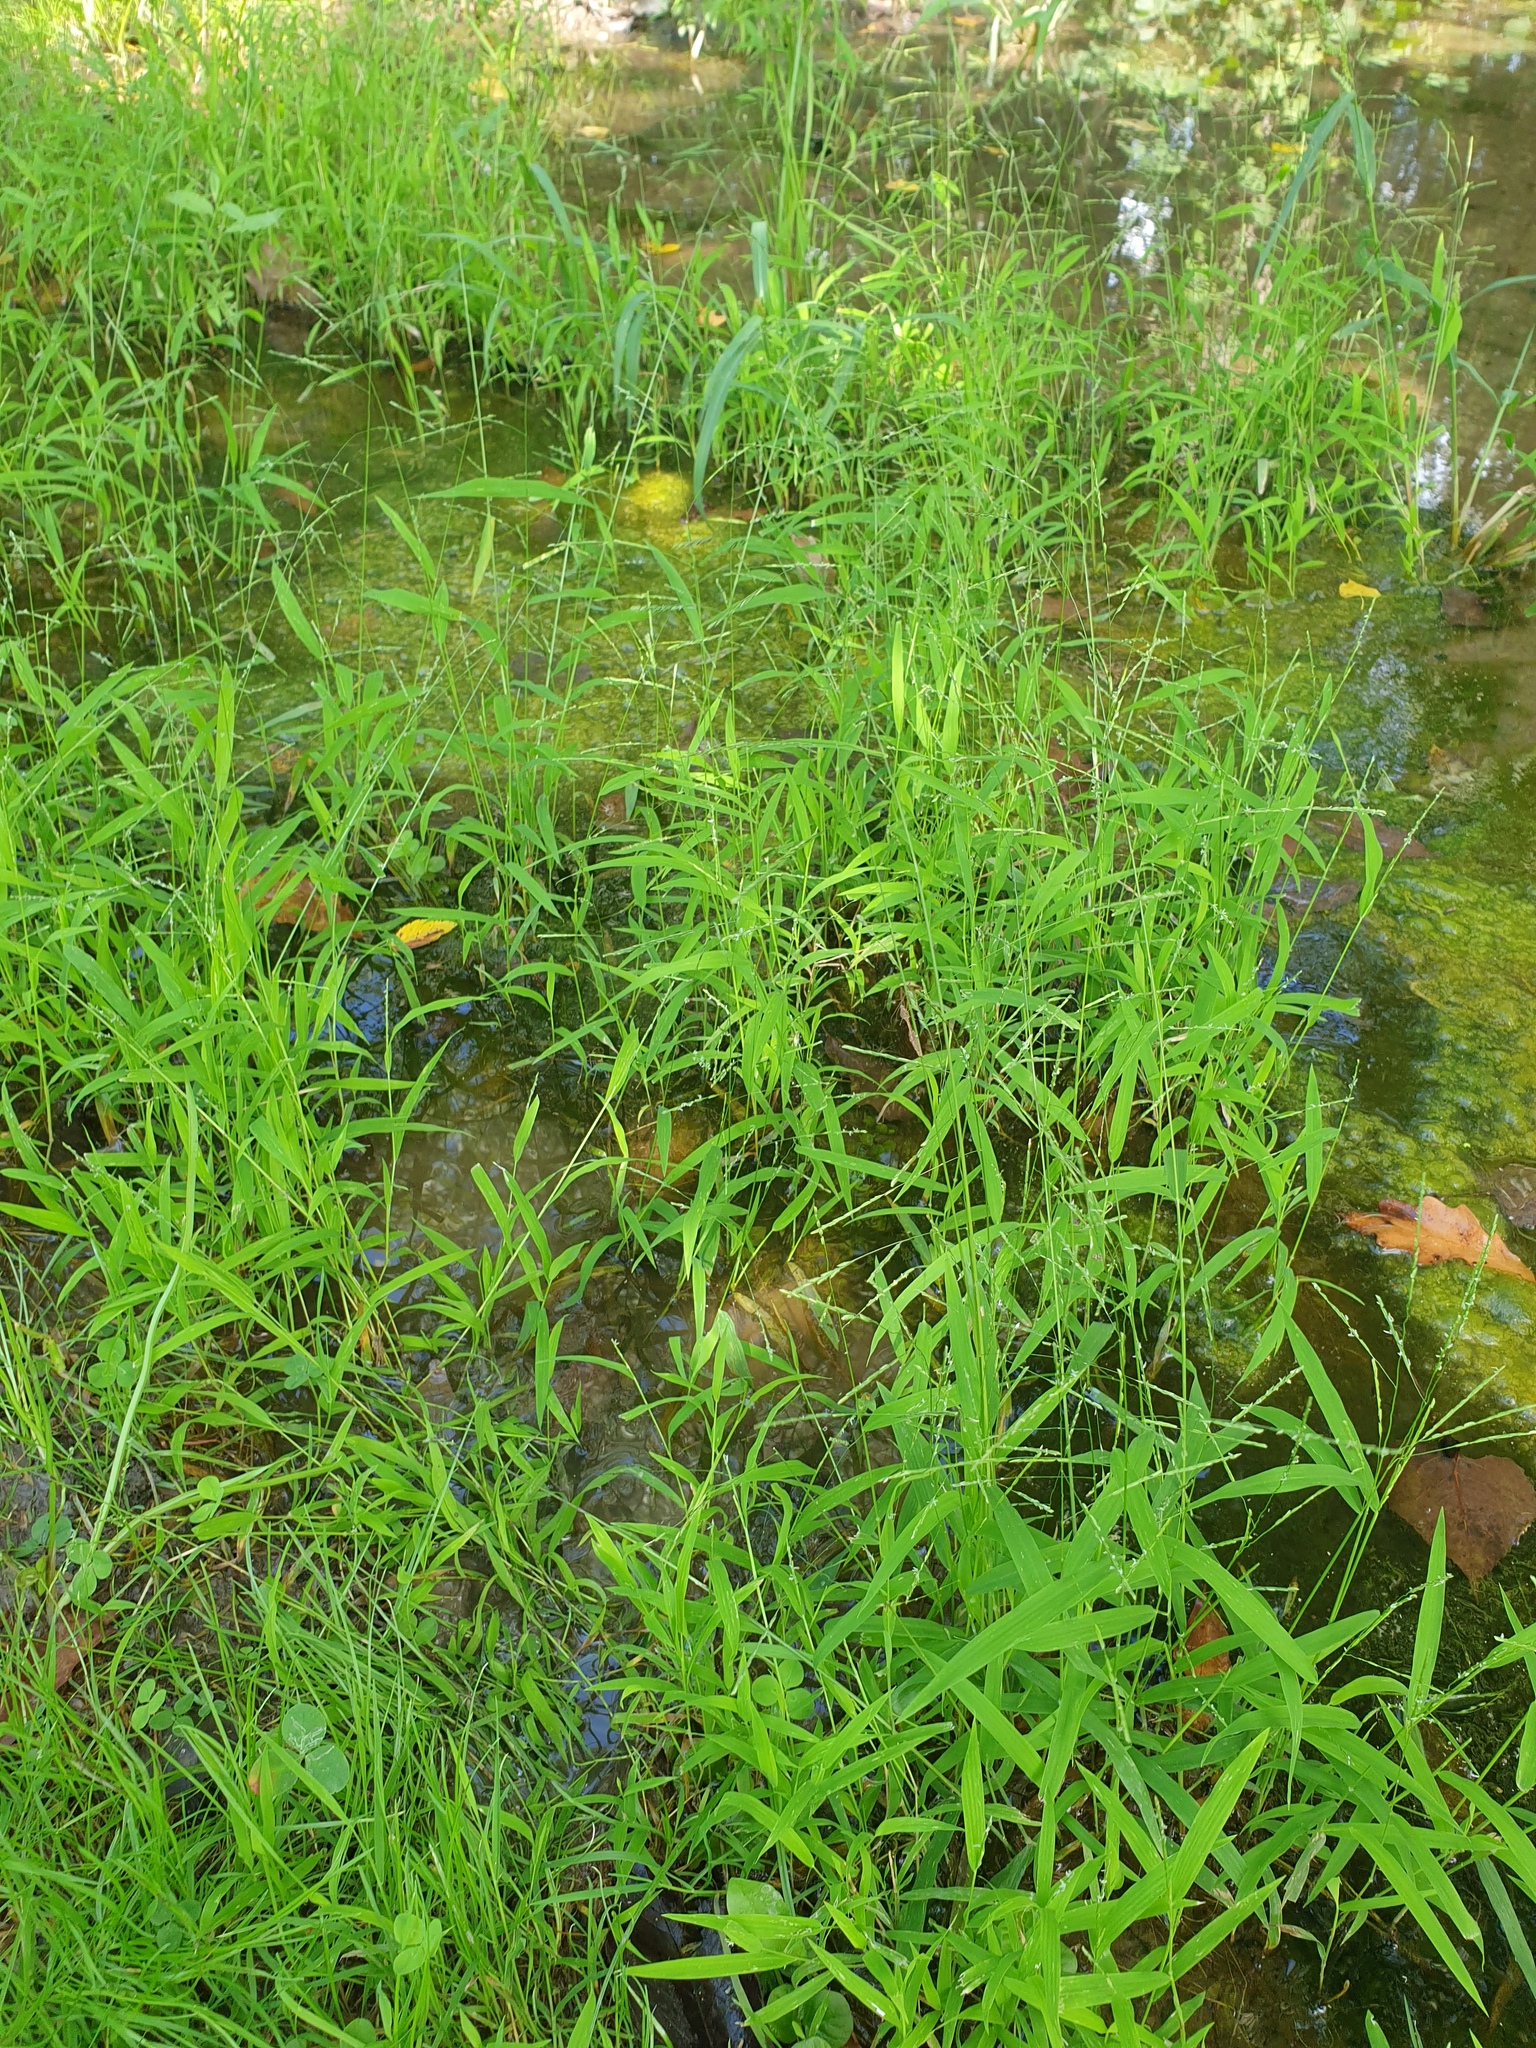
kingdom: Plantae
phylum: Tracheophyta
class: Liliopsida
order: Poales
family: Poaceae
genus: Leersia
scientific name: Leersia virginica
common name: White cutgrass
